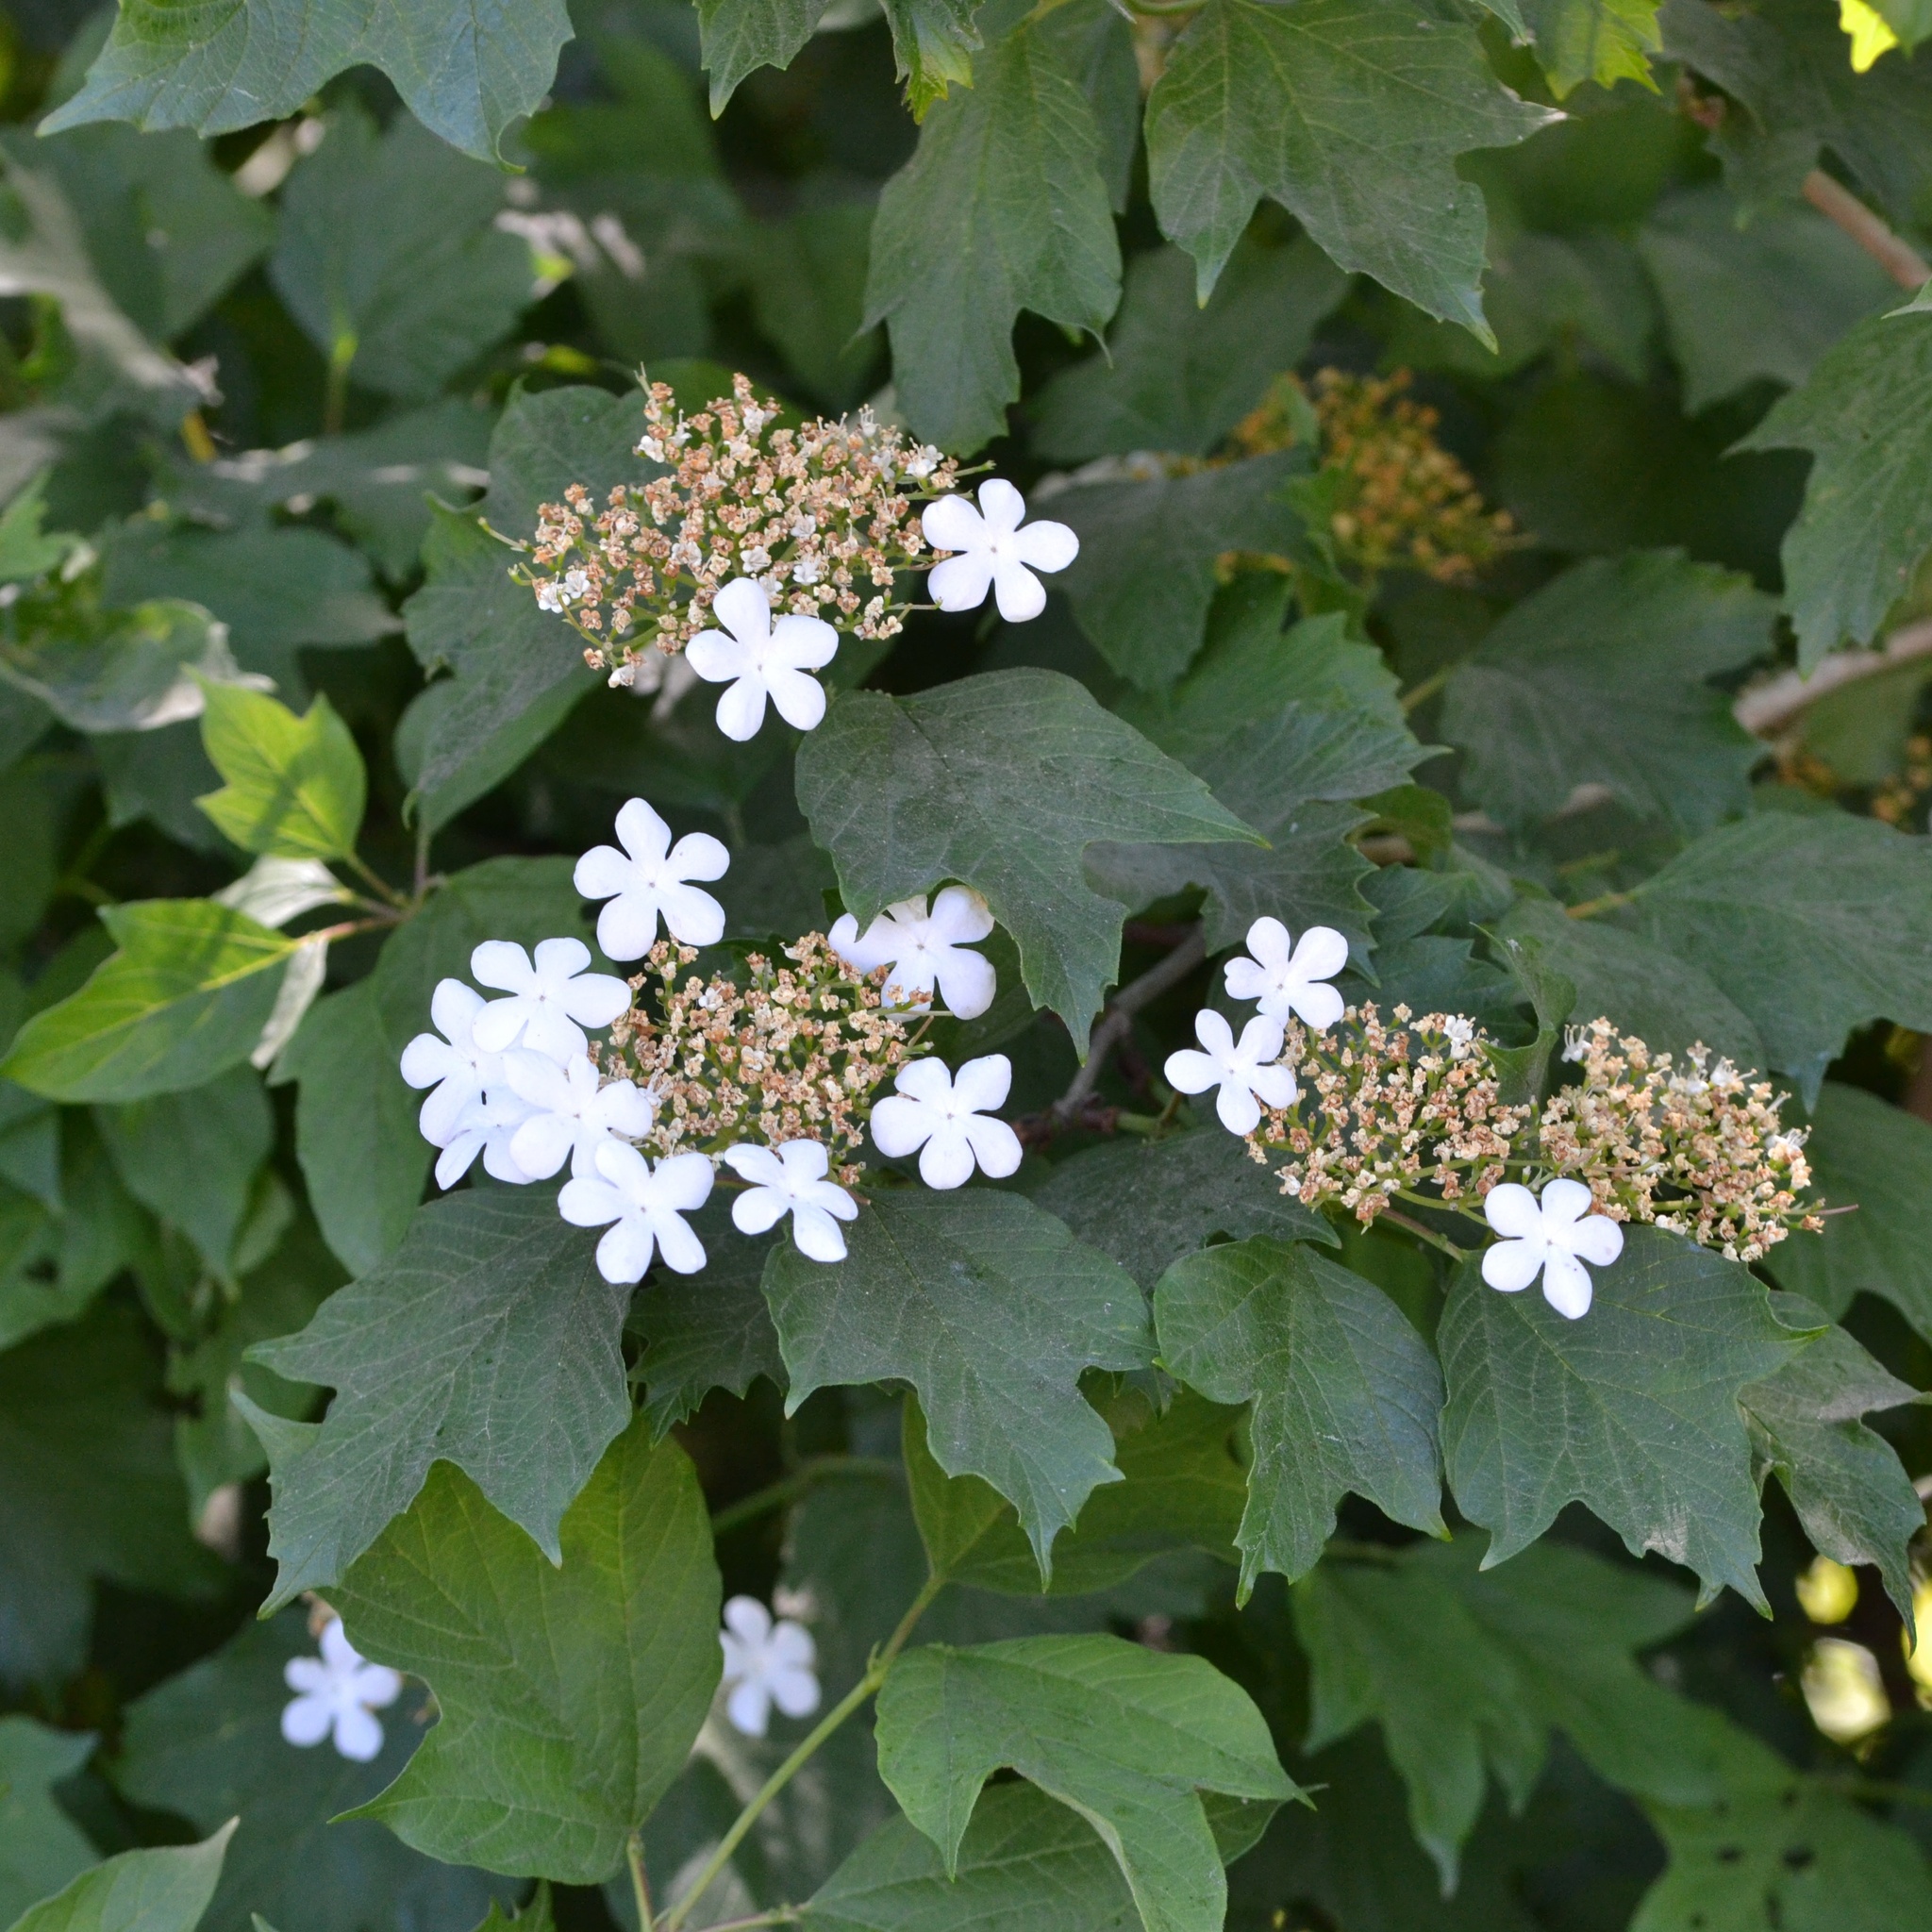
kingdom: Plantae
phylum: Tracheophyta
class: Magnoliopsida
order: Dipsacales
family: Viburnaceae
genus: Viburnum
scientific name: Viburnum opulus
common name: Guelder-rose
